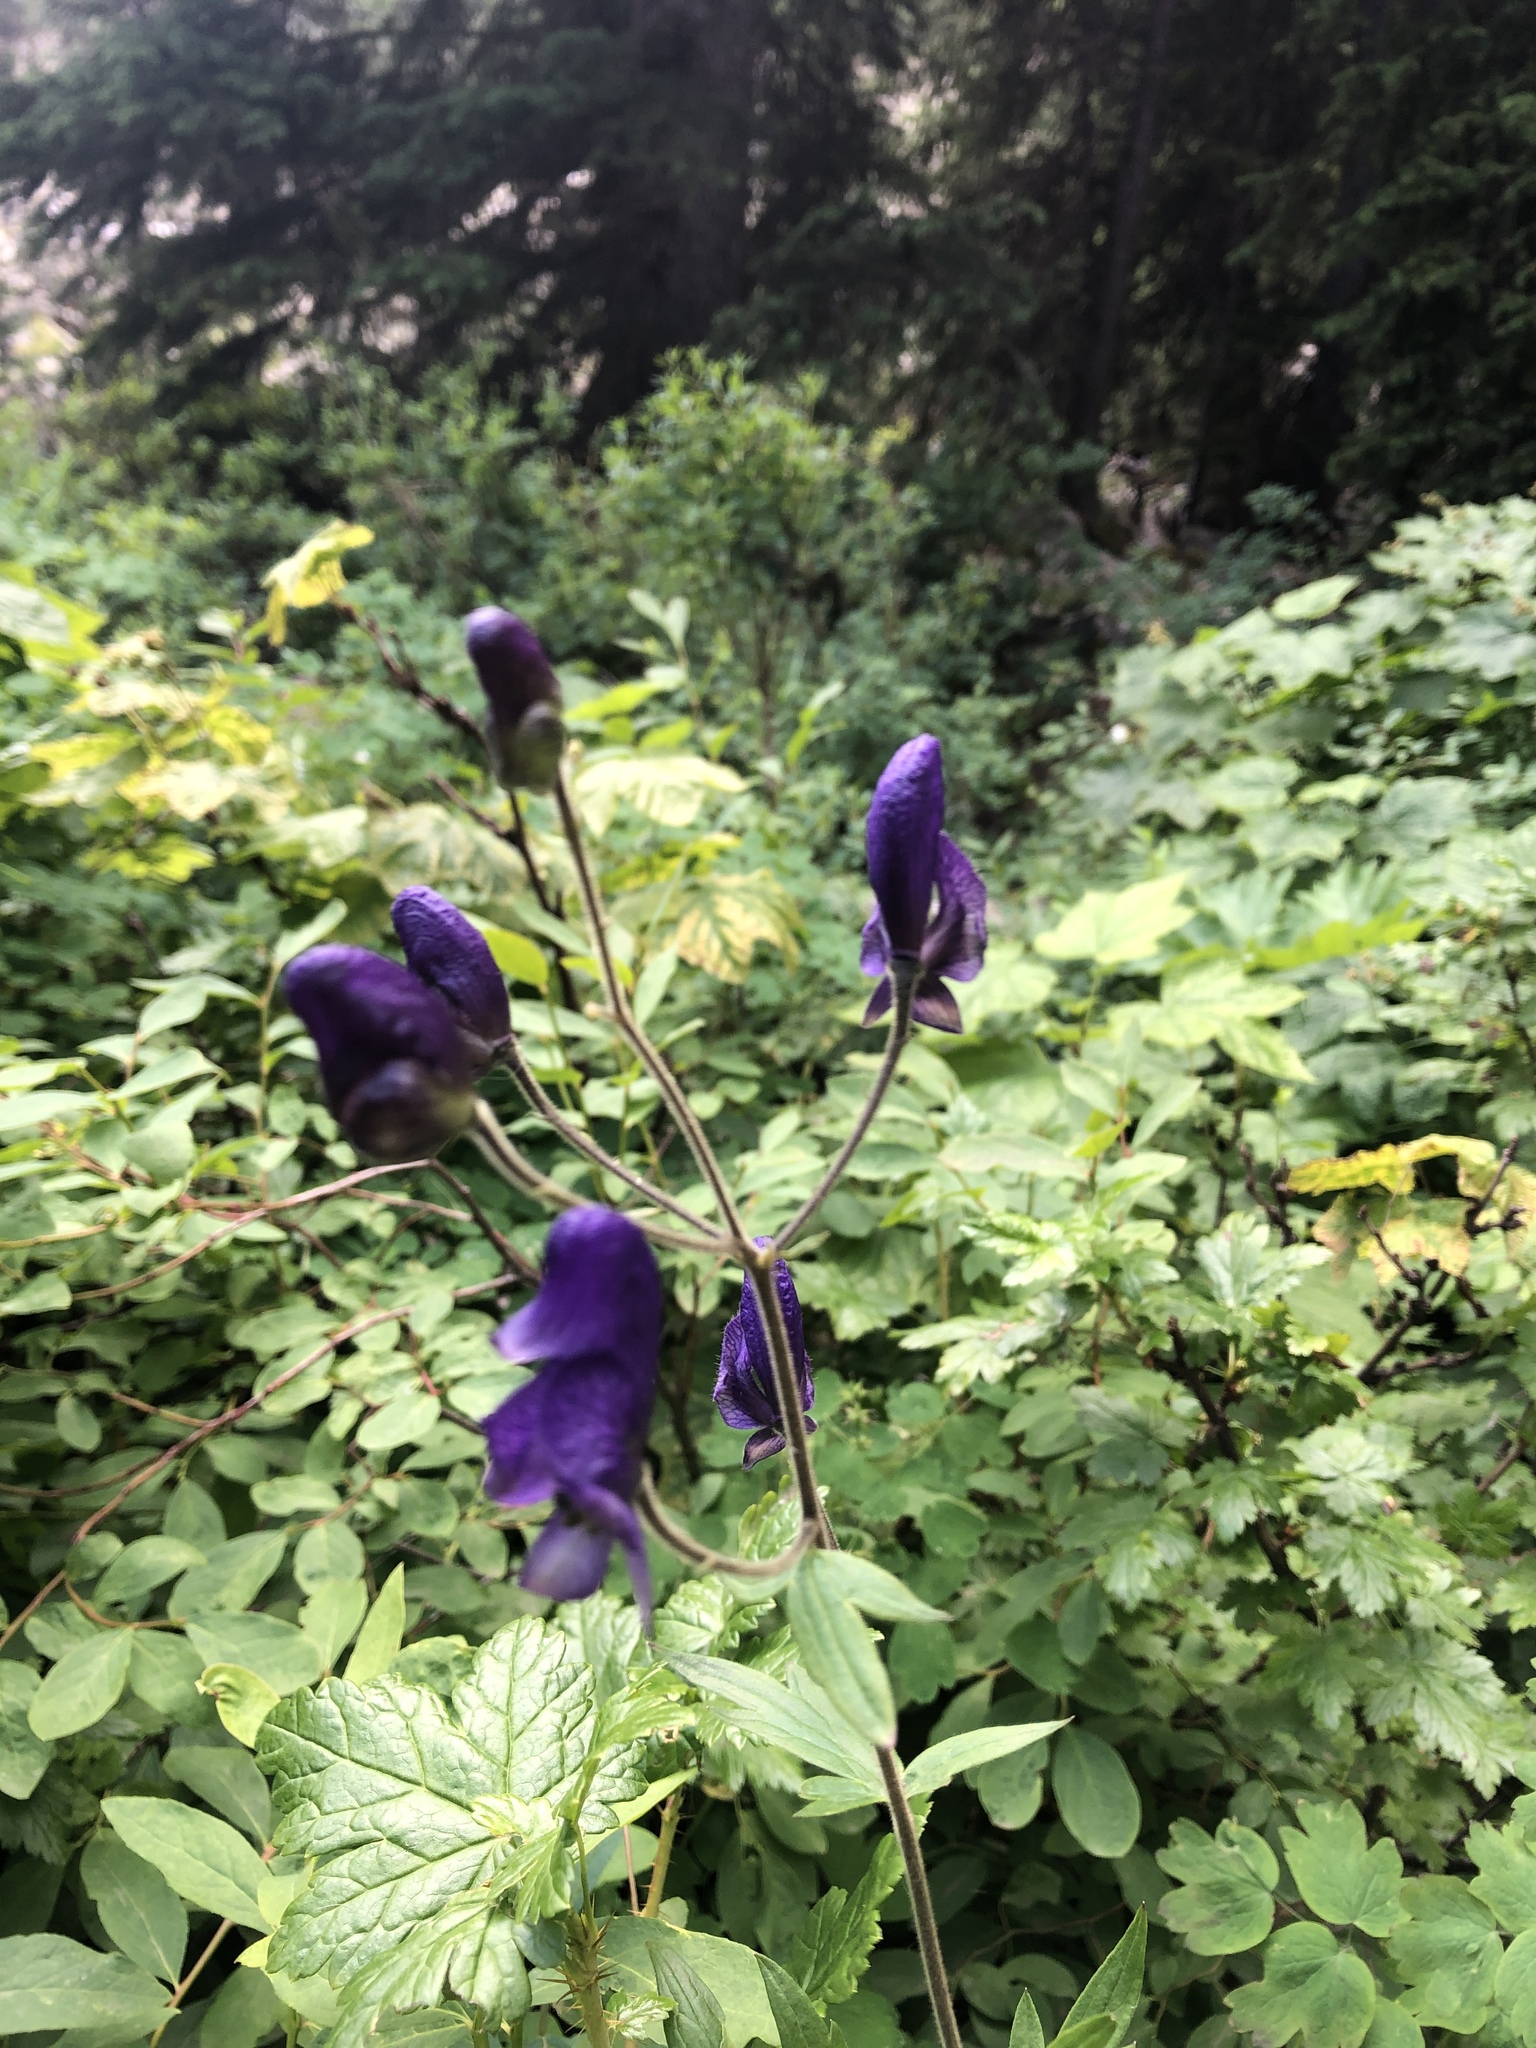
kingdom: Plantae
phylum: Tracheophyta
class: Magnoliopsida
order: Ranunculales
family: Ranunculaceae
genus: Aconitum
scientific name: Aconitum columbianum
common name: Columbia aconite
